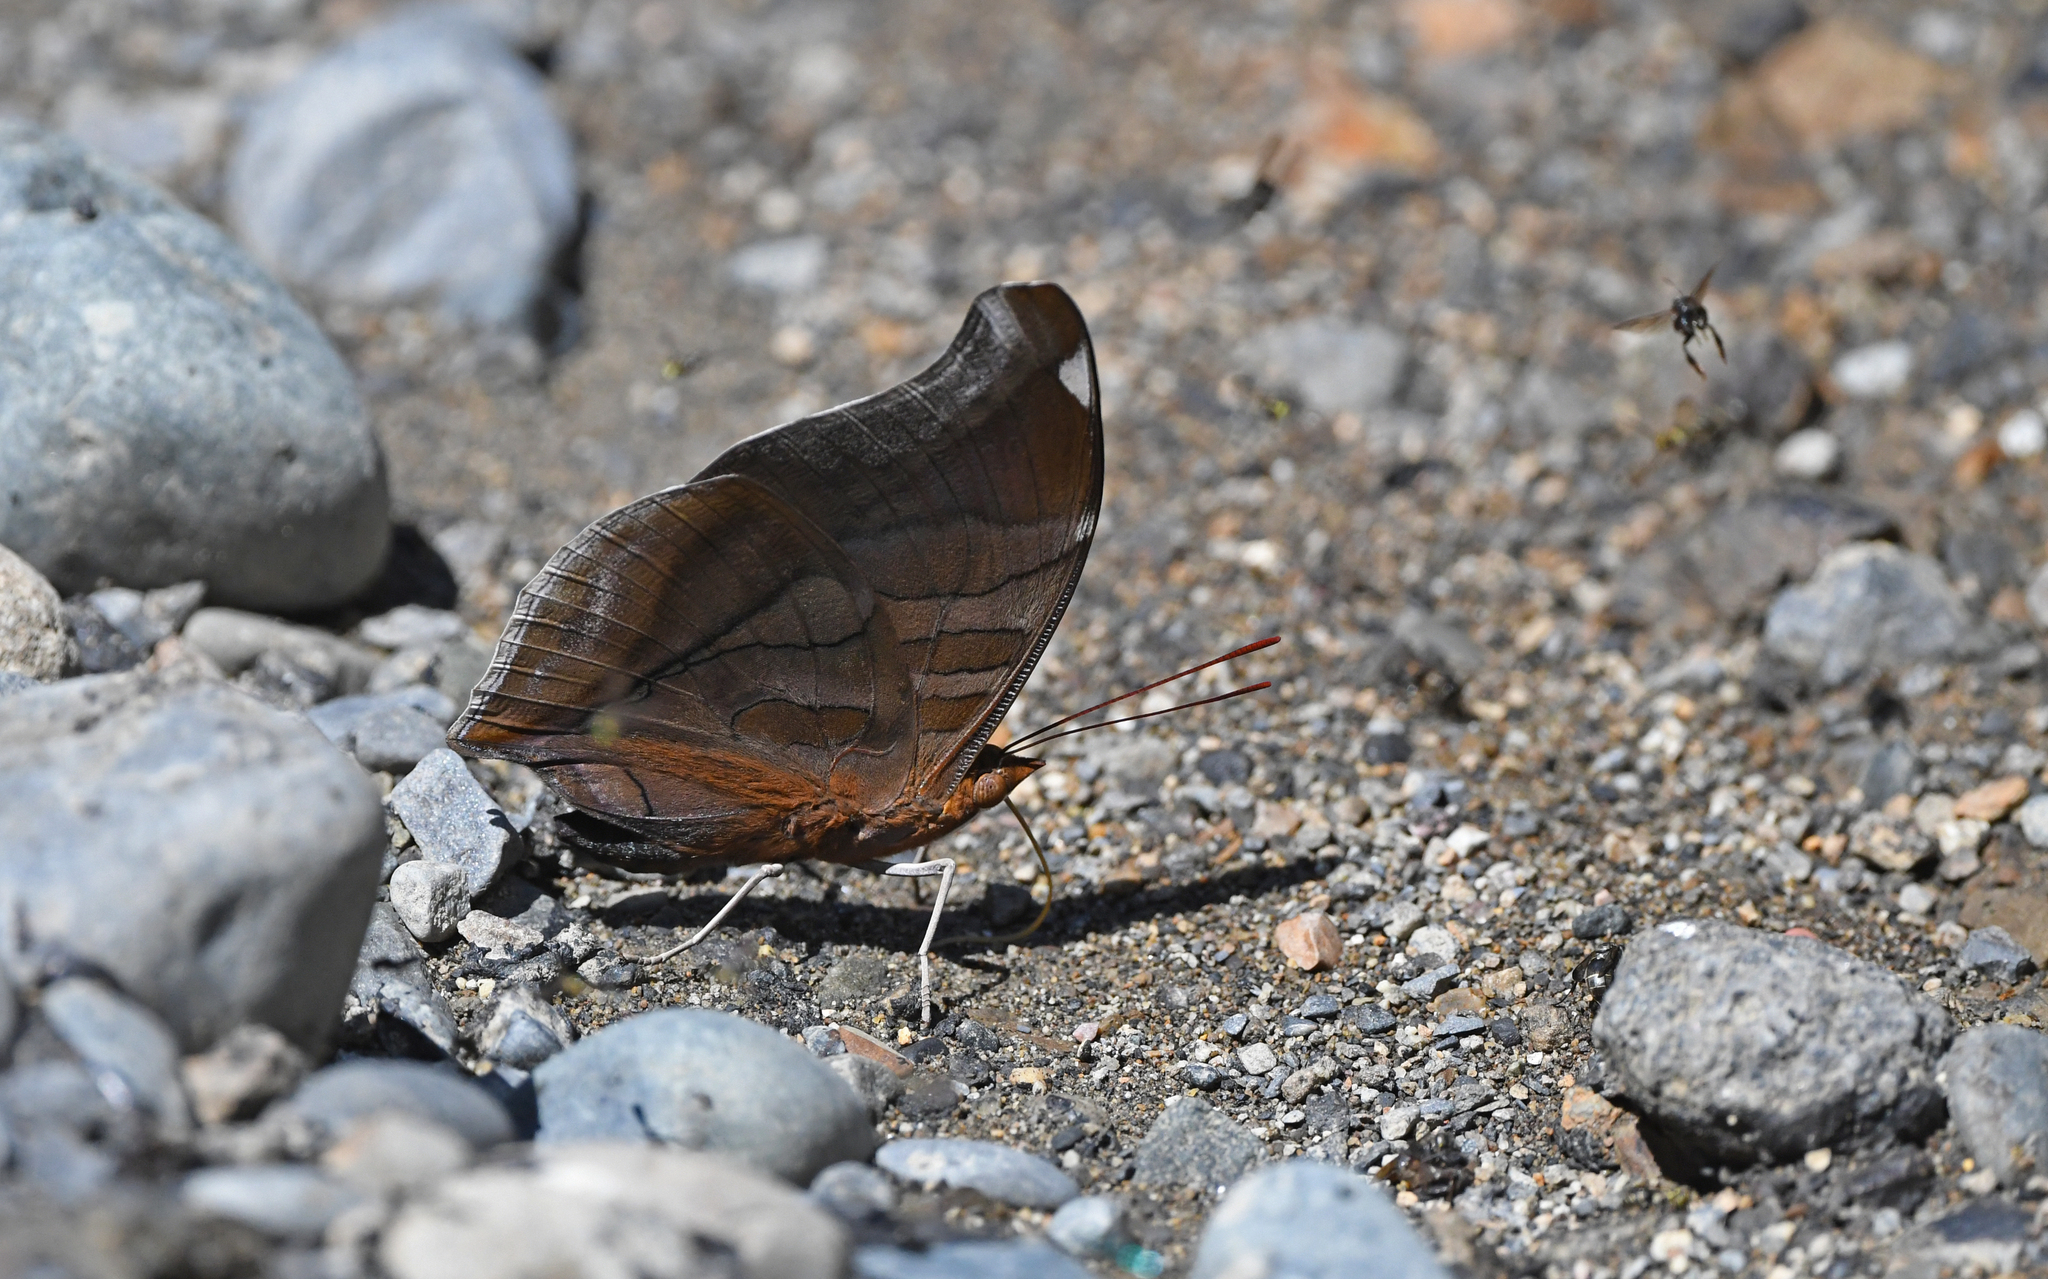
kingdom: Animalia
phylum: Arthropoda
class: Insecta
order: Lepidoptera
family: Nymphalidae
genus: Historis
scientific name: Historis odius
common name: Orion cecropian
